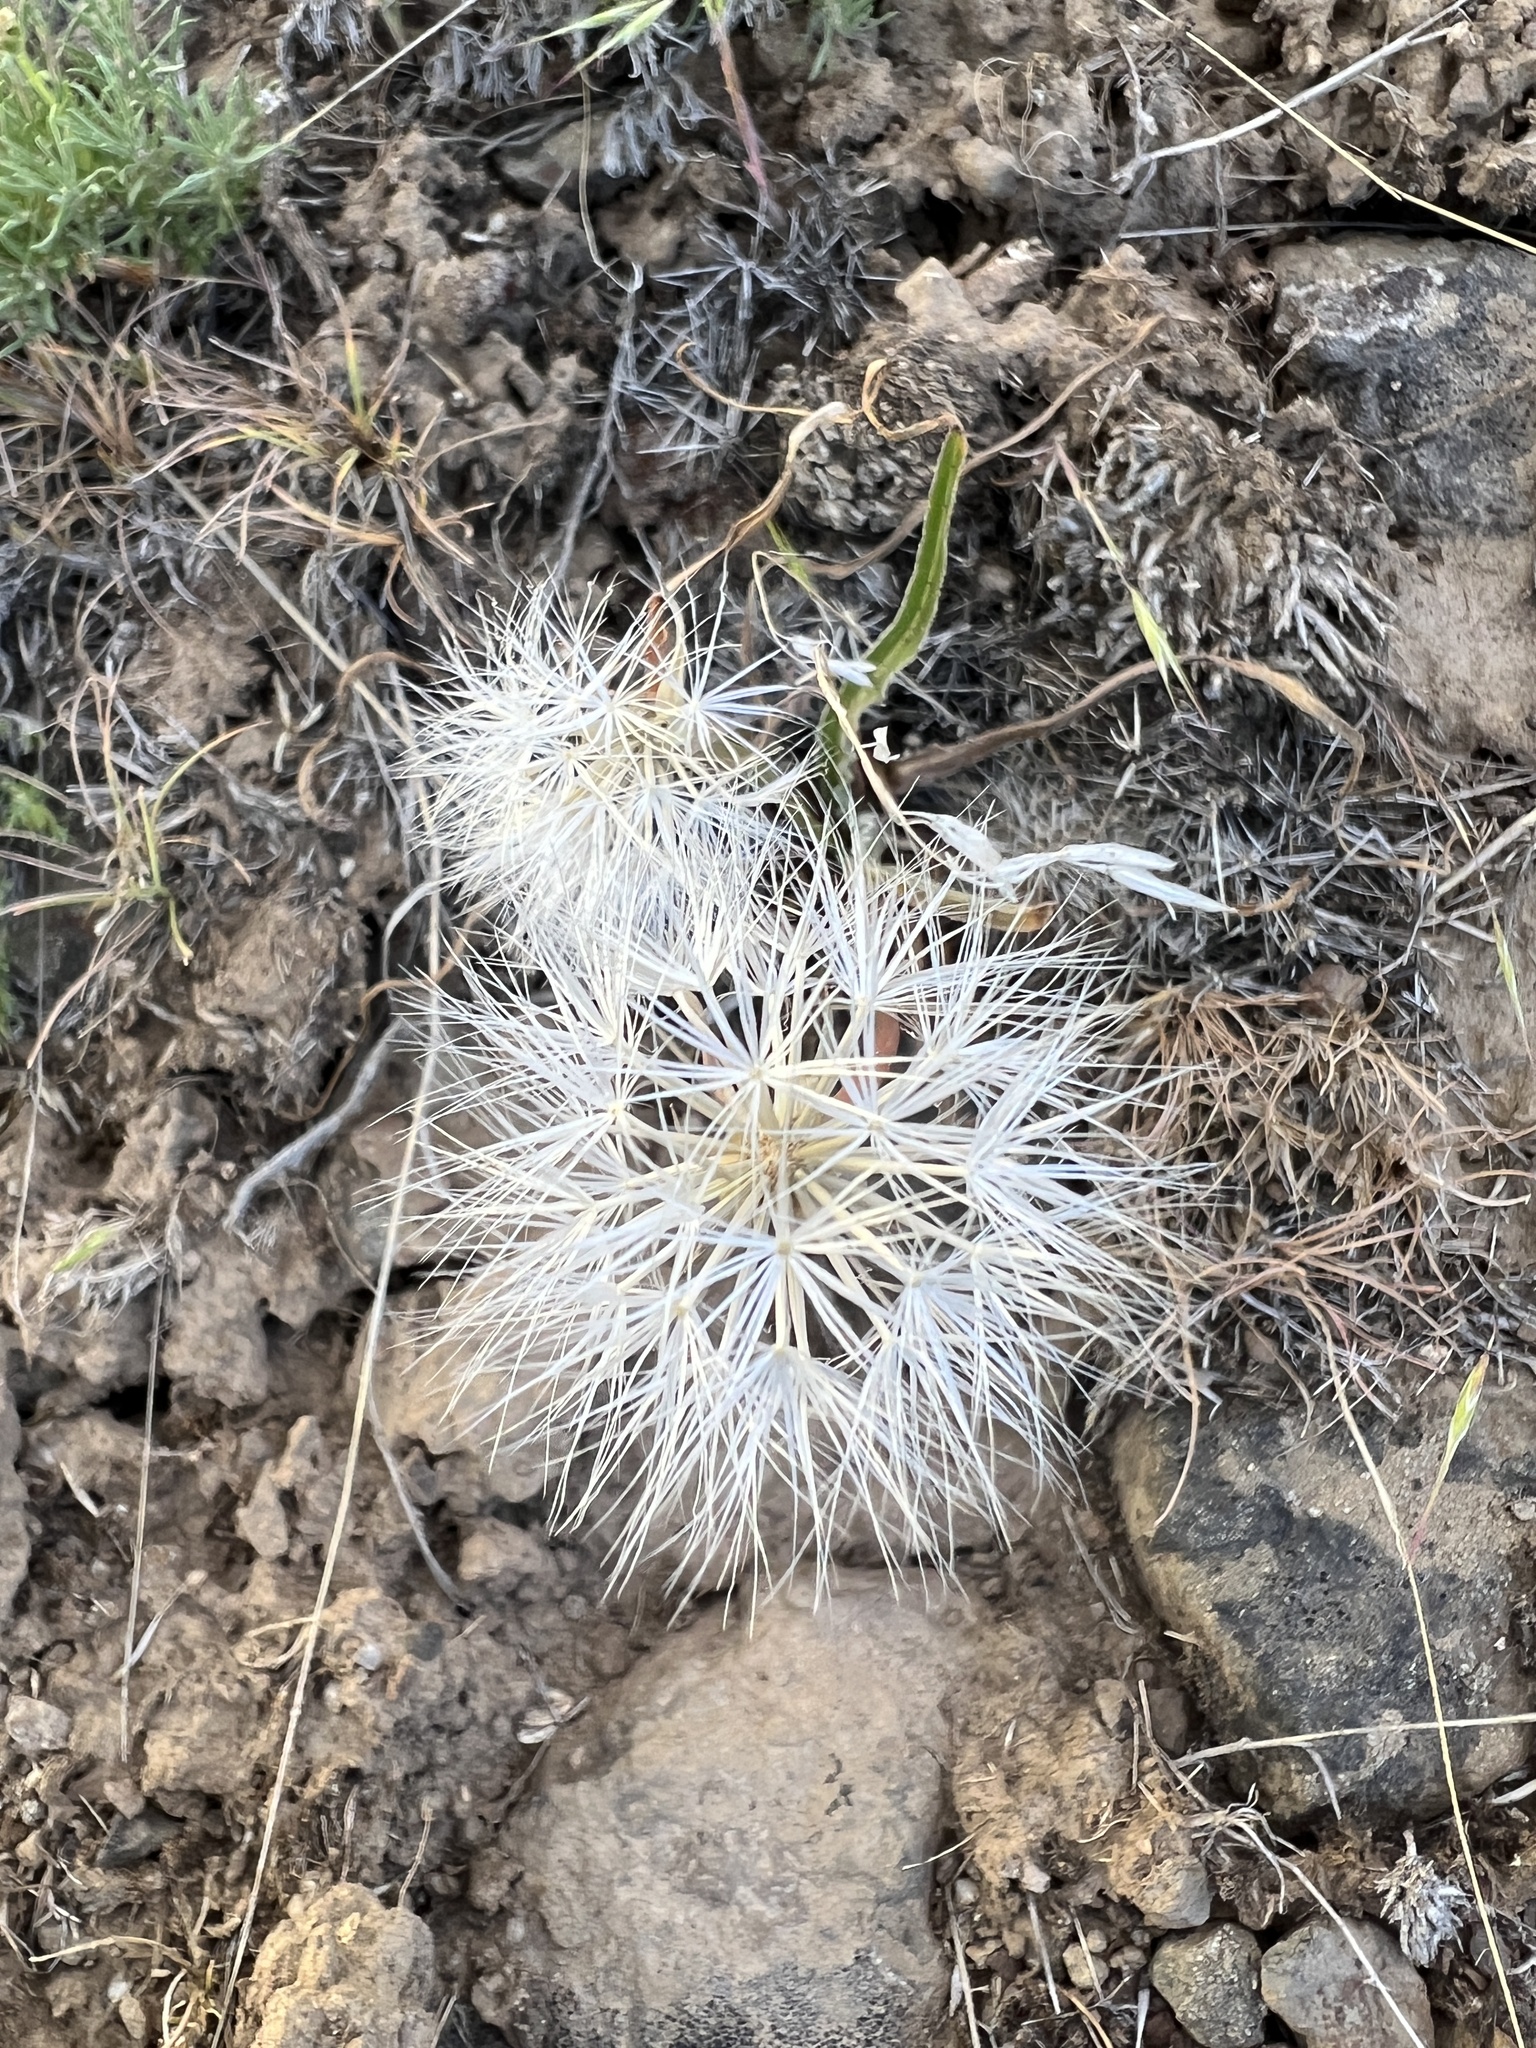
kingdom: Plantae
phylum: Tracheophyta
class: Magnoliopsida
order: Asterales
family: Asteraceae
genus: Microseris
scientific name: Microseris troximoides
